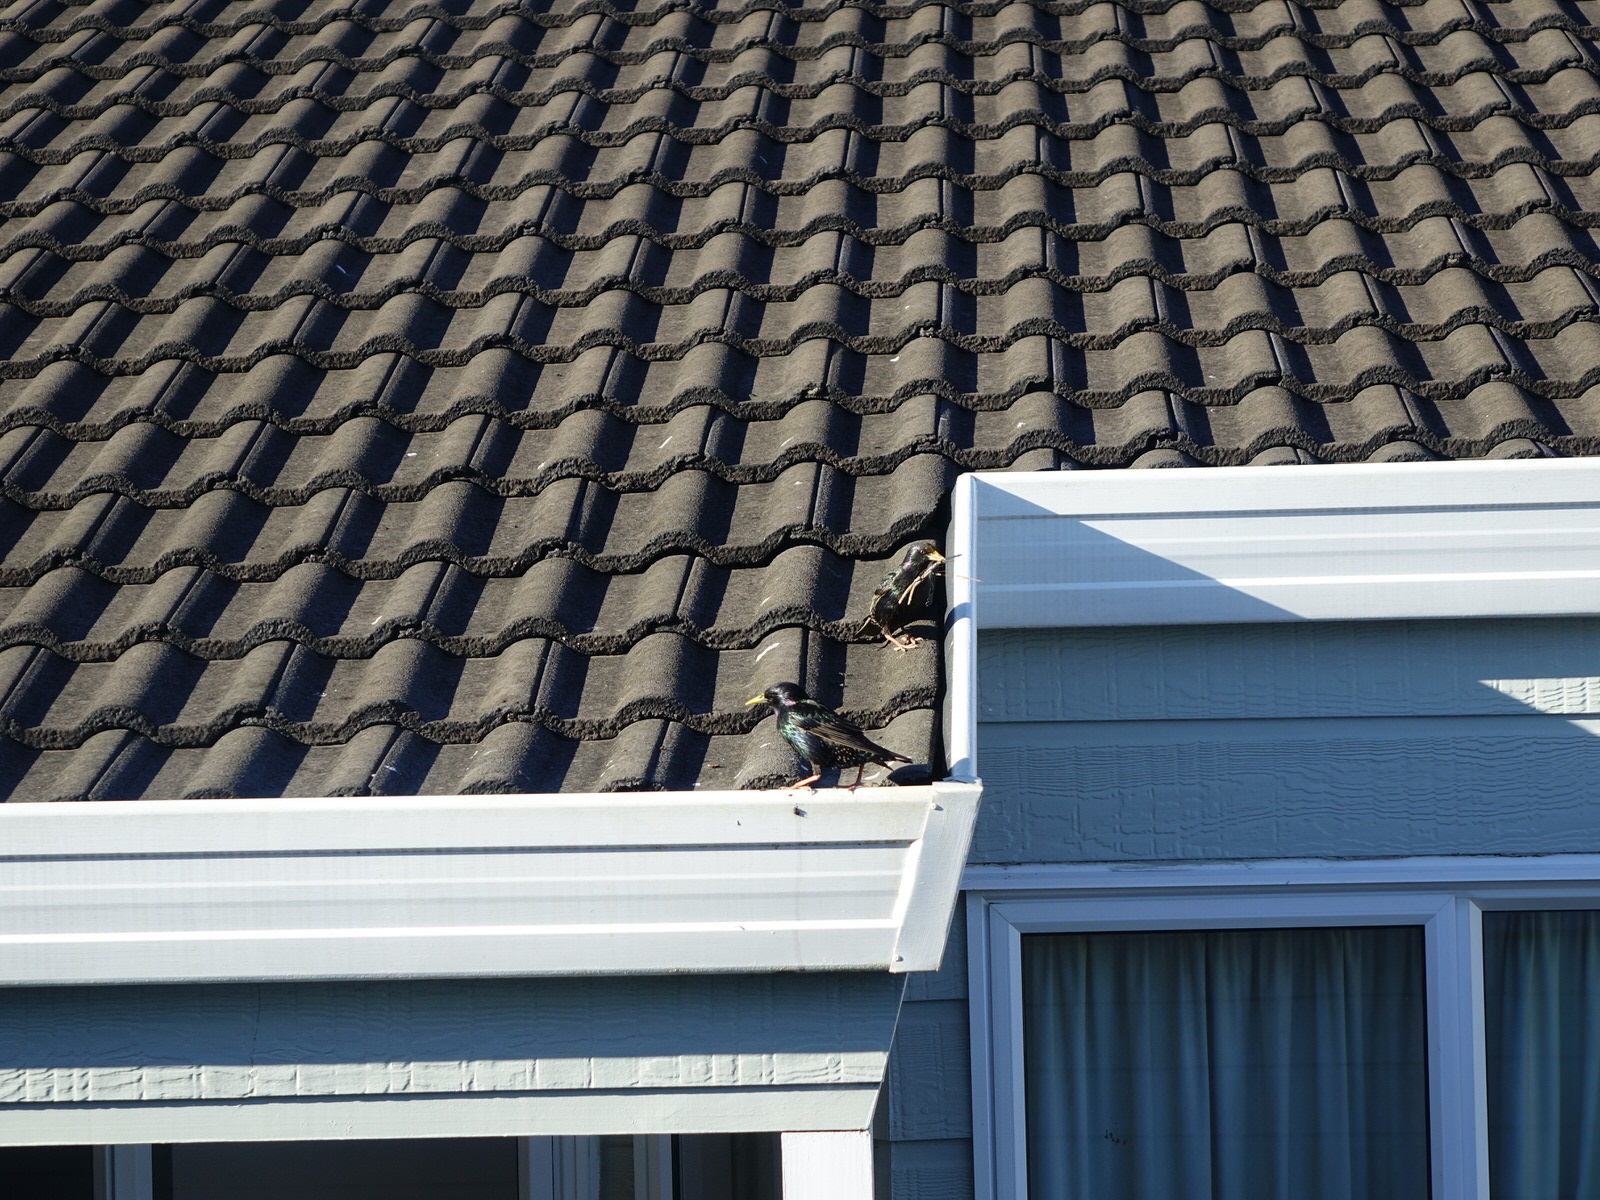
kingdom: Animalia
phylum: Chordata
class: Aves
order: Passeriformes
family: Sturnidae
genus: Sturnus
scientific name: Sturnus vulgaris
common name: Common starling
